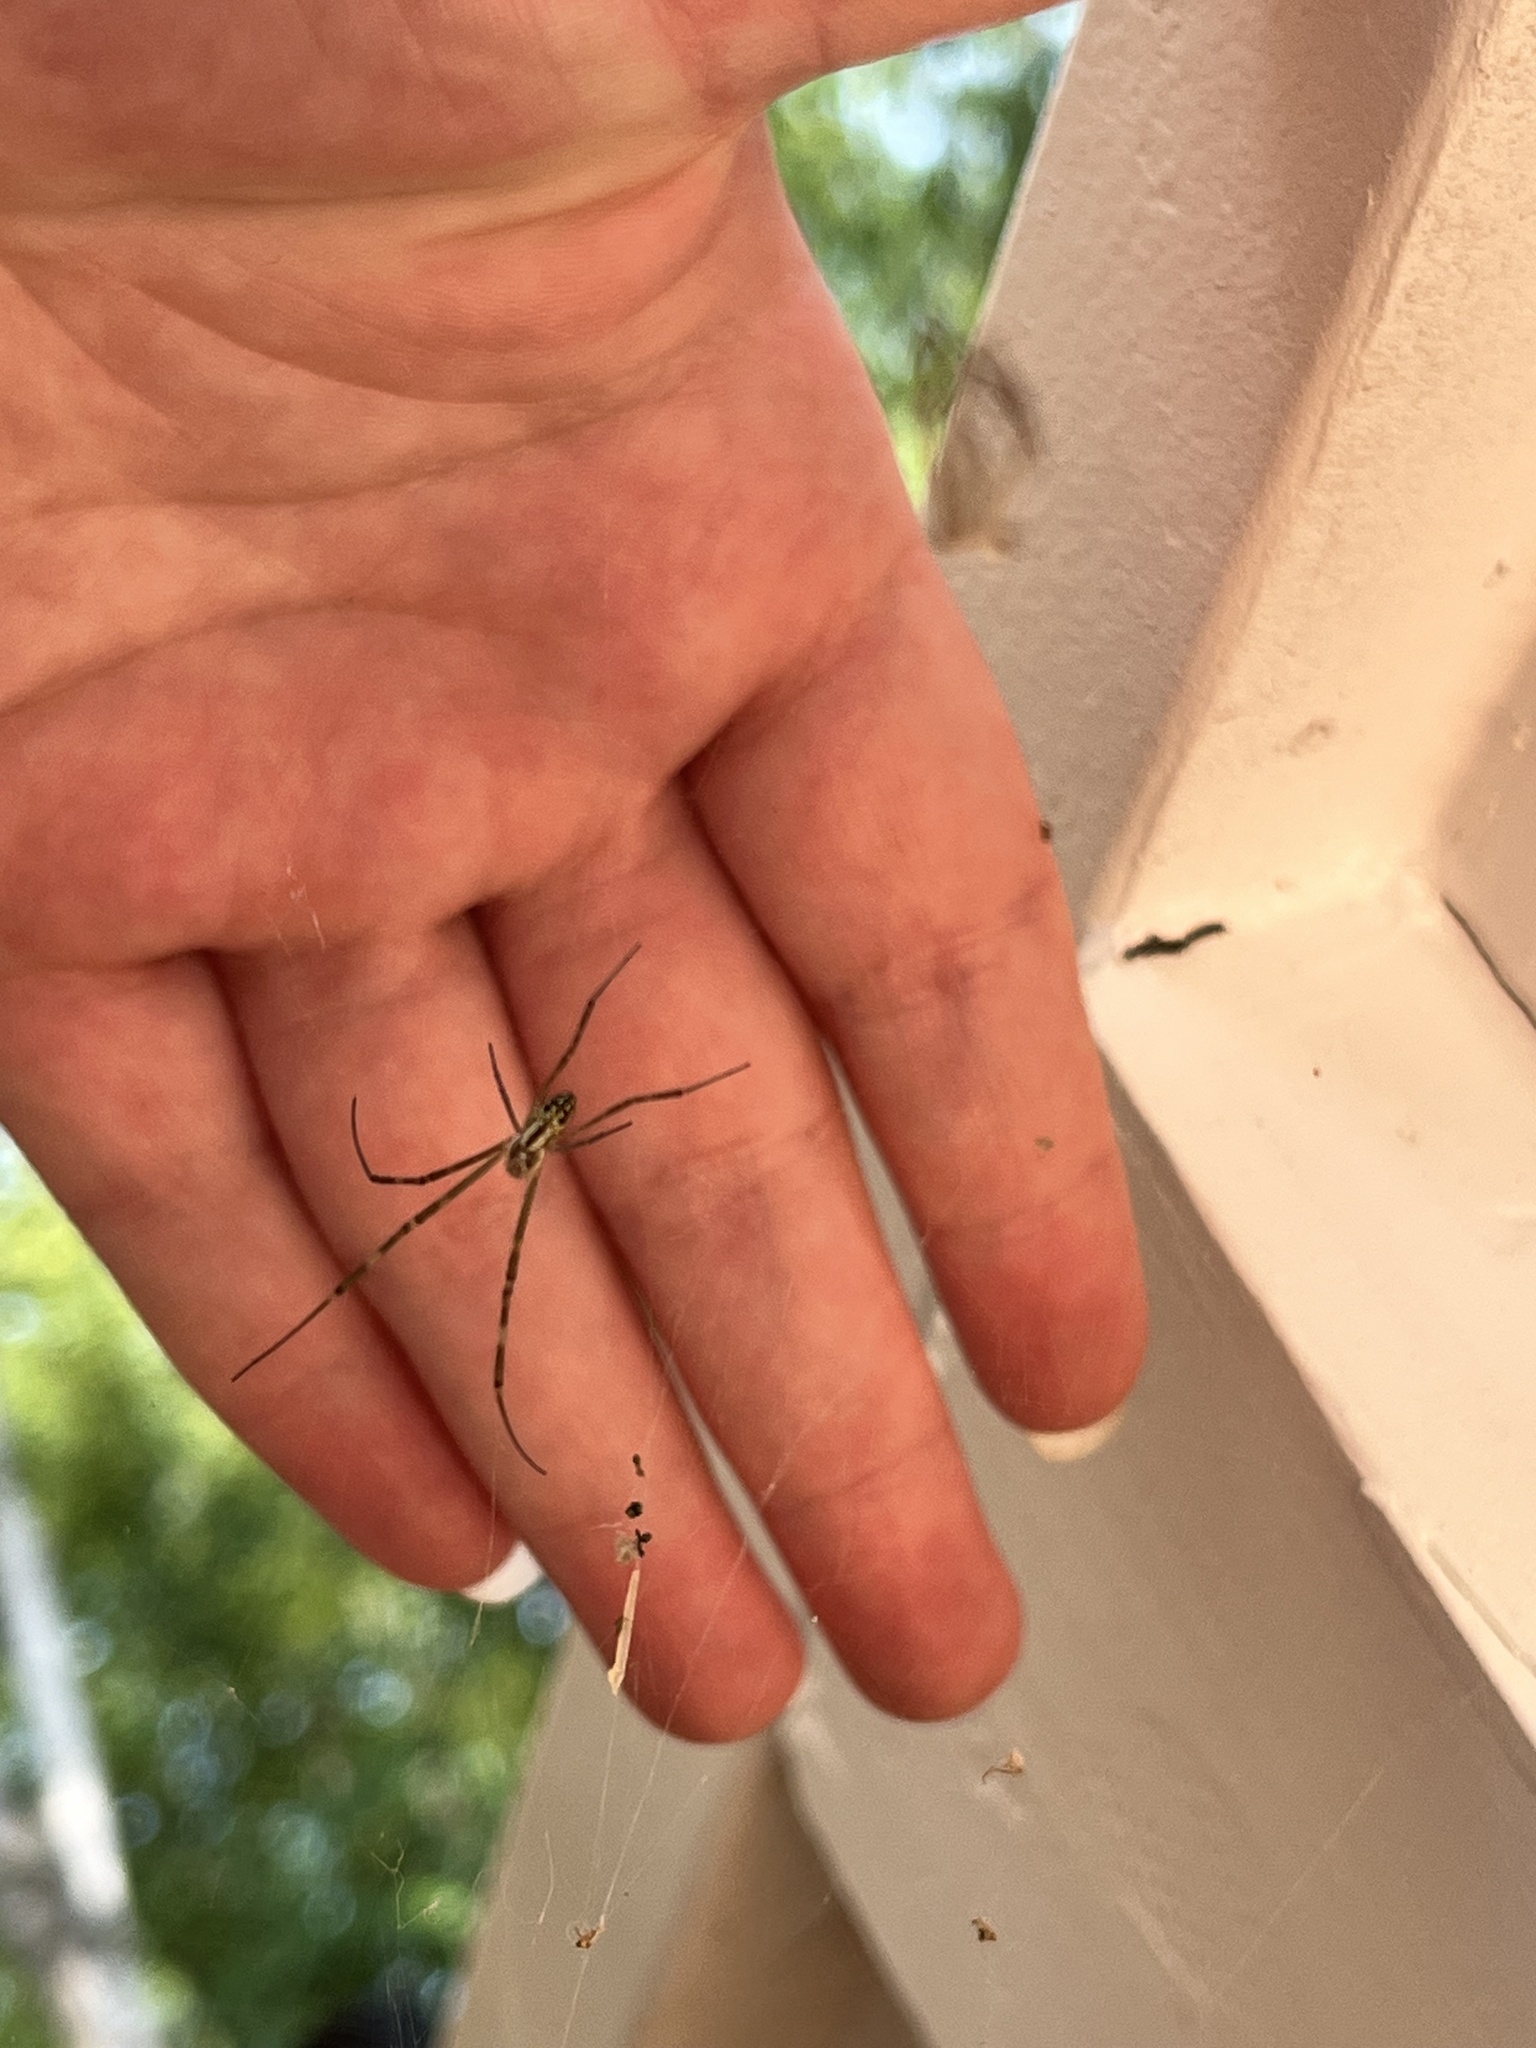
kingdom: Animalia
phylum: Arthropoda
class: Arachnida
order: Araneae
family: Araneidae
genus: Trichonephila
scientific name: Trichonephila clavata
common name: Jorō spider
